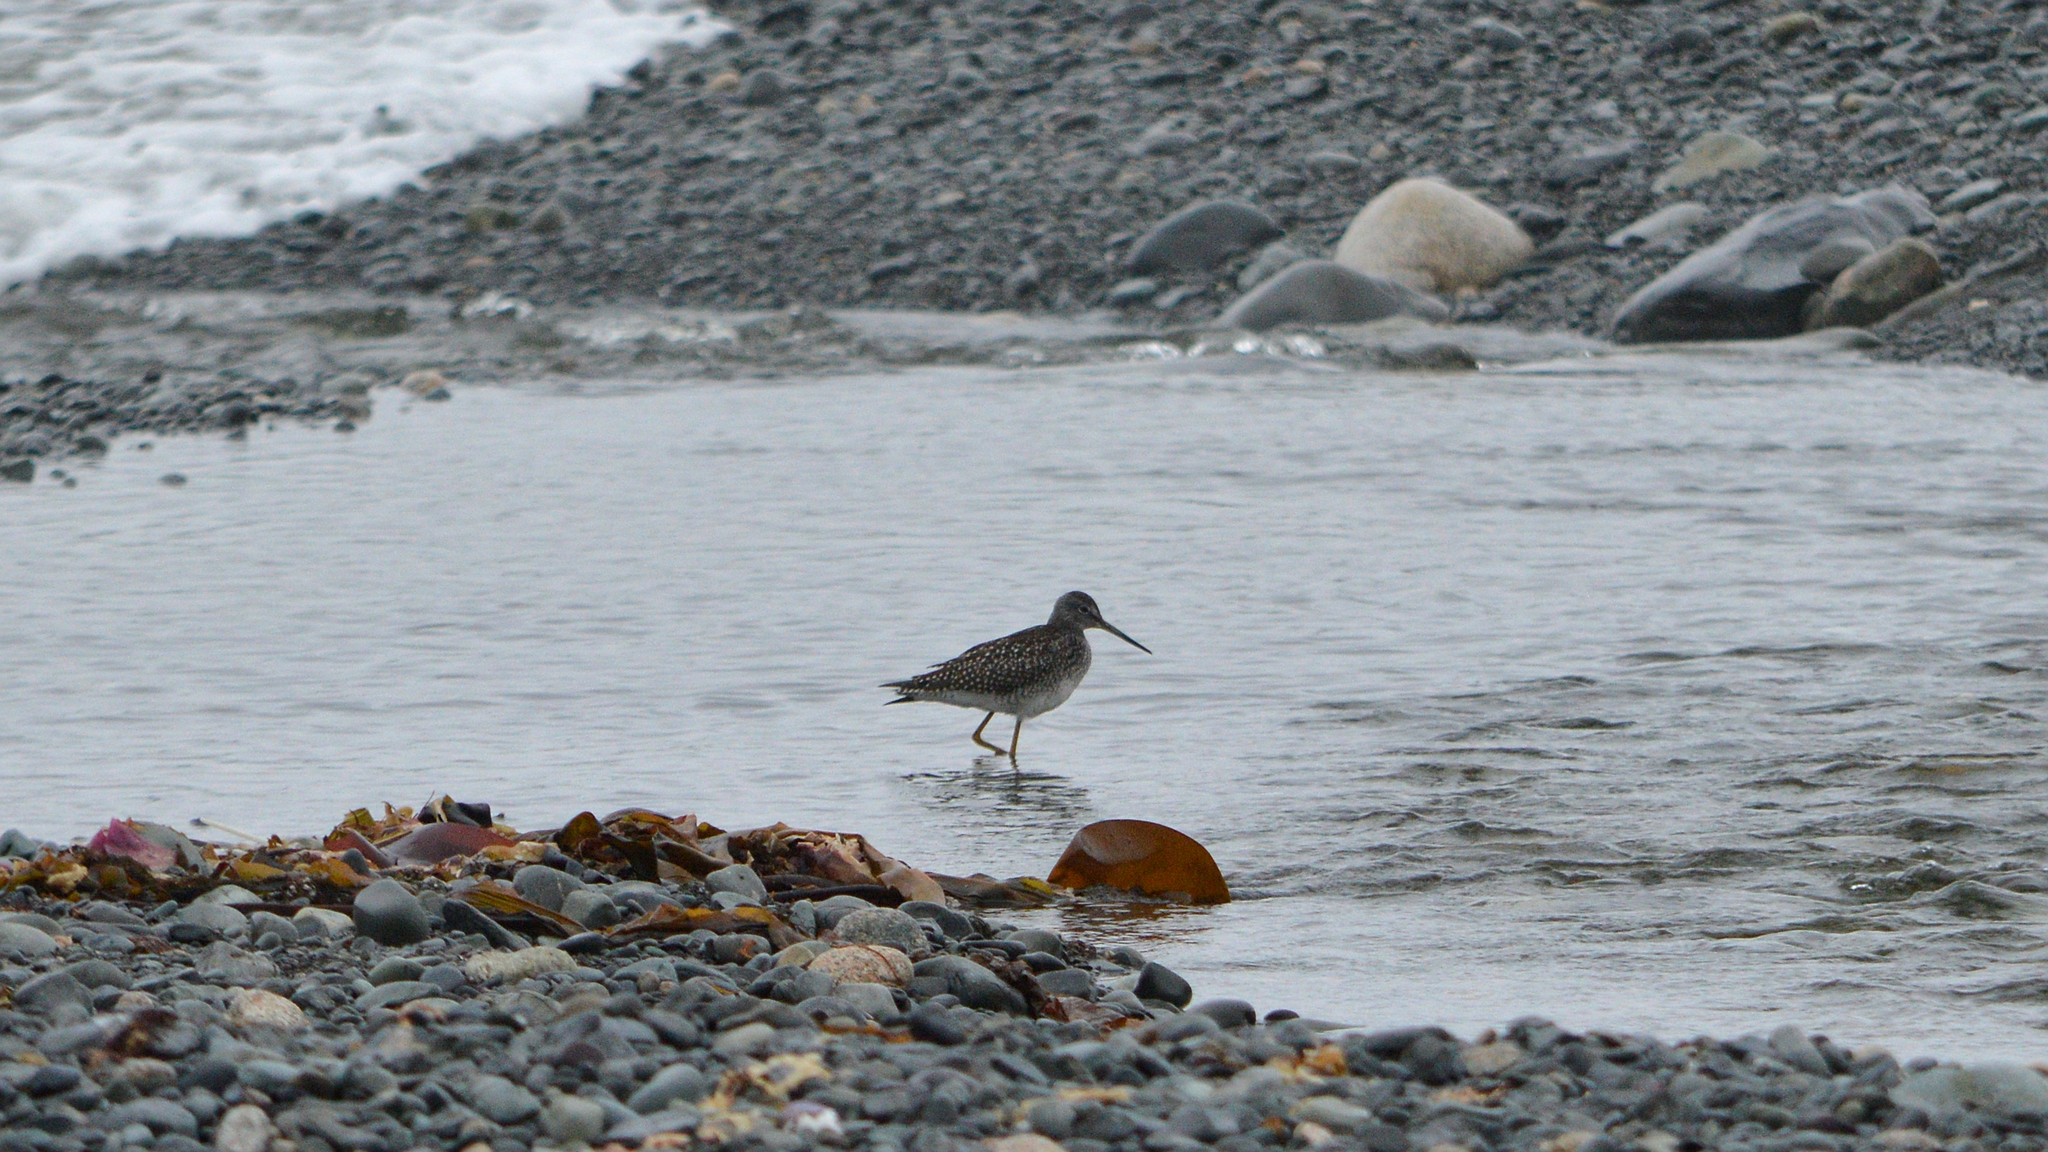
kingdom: Animalia
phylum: Chordata
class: Aves
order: Charadriiformes
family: Scolopacidae
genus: Tringa
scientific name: Tringa melanoleuca
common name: Greater yellowlegs
